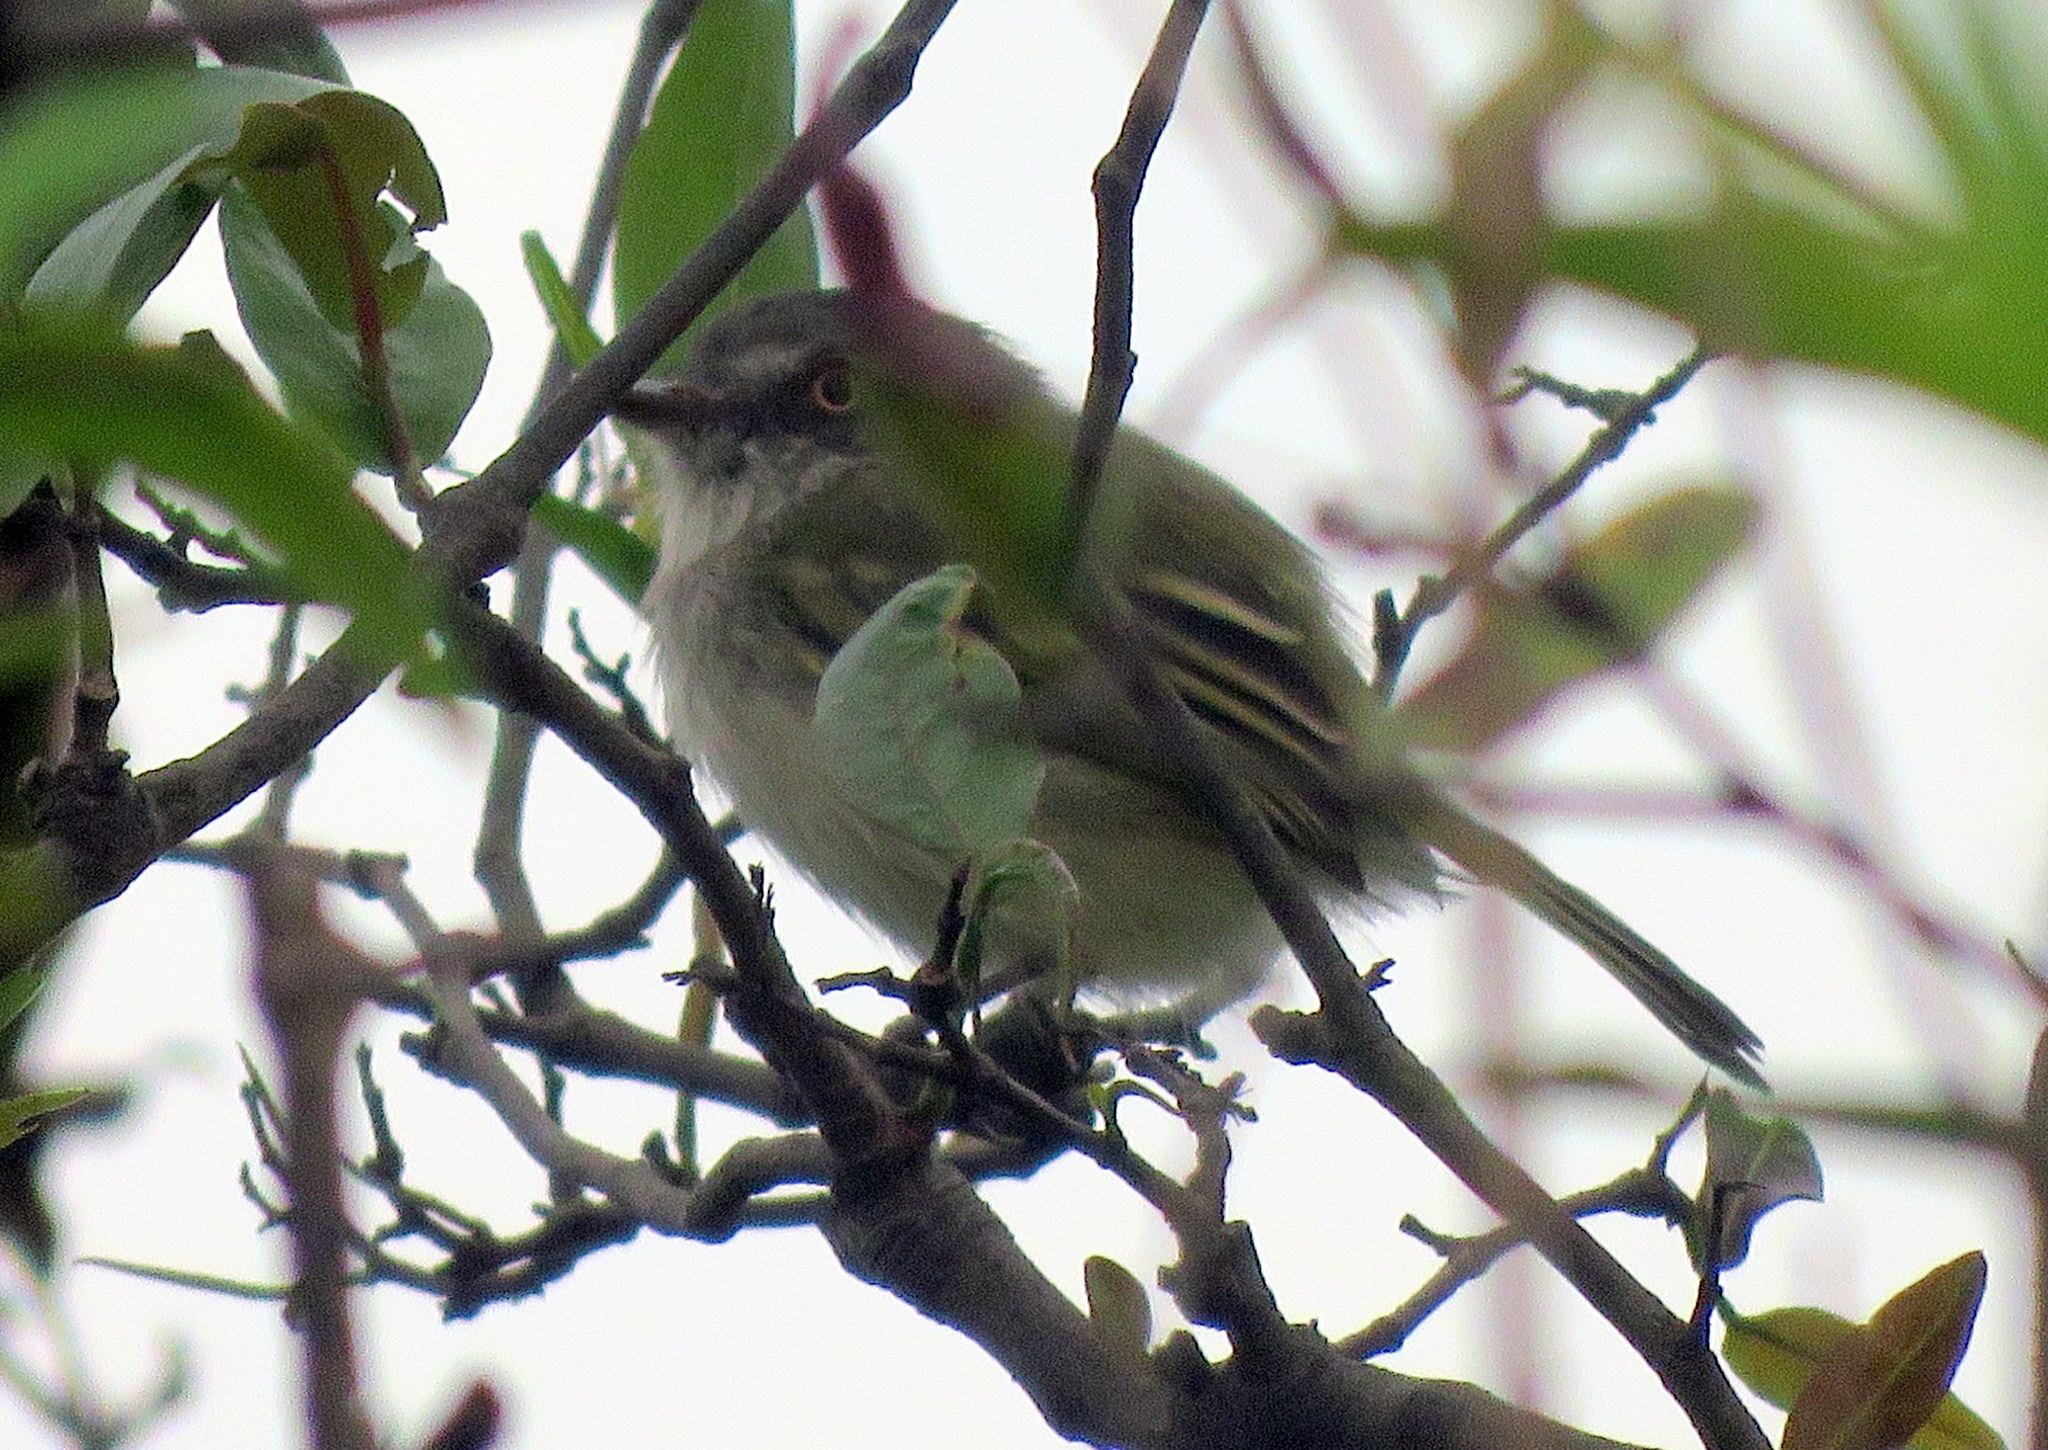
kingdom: Animalia
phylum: Chordata
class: Aves
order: Passeriformes
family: Tyrannidae
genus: Hemitriccus
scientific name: Hemitriccus margaritaceiventer
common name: Pearly-vented tody-tyrant
